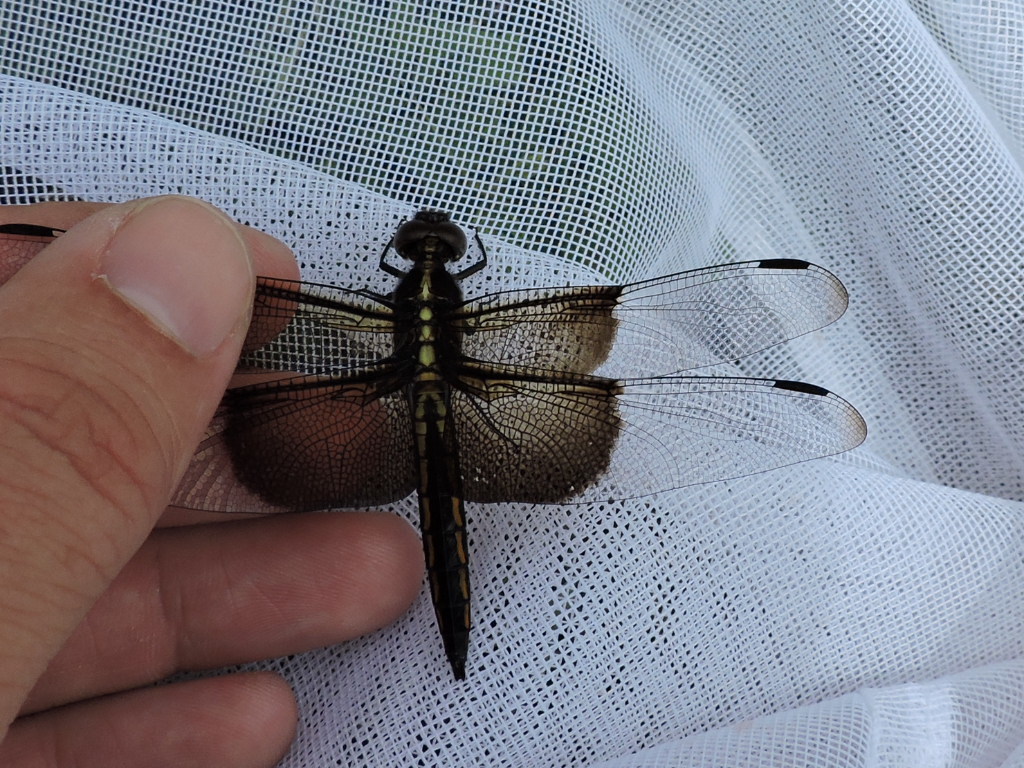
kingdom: Animalia
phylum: Arthropoda
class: Insecta
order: Odonata
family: Libellulidae
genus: Libellula
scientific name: Libellula luctuosa
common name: Widow skimmer
